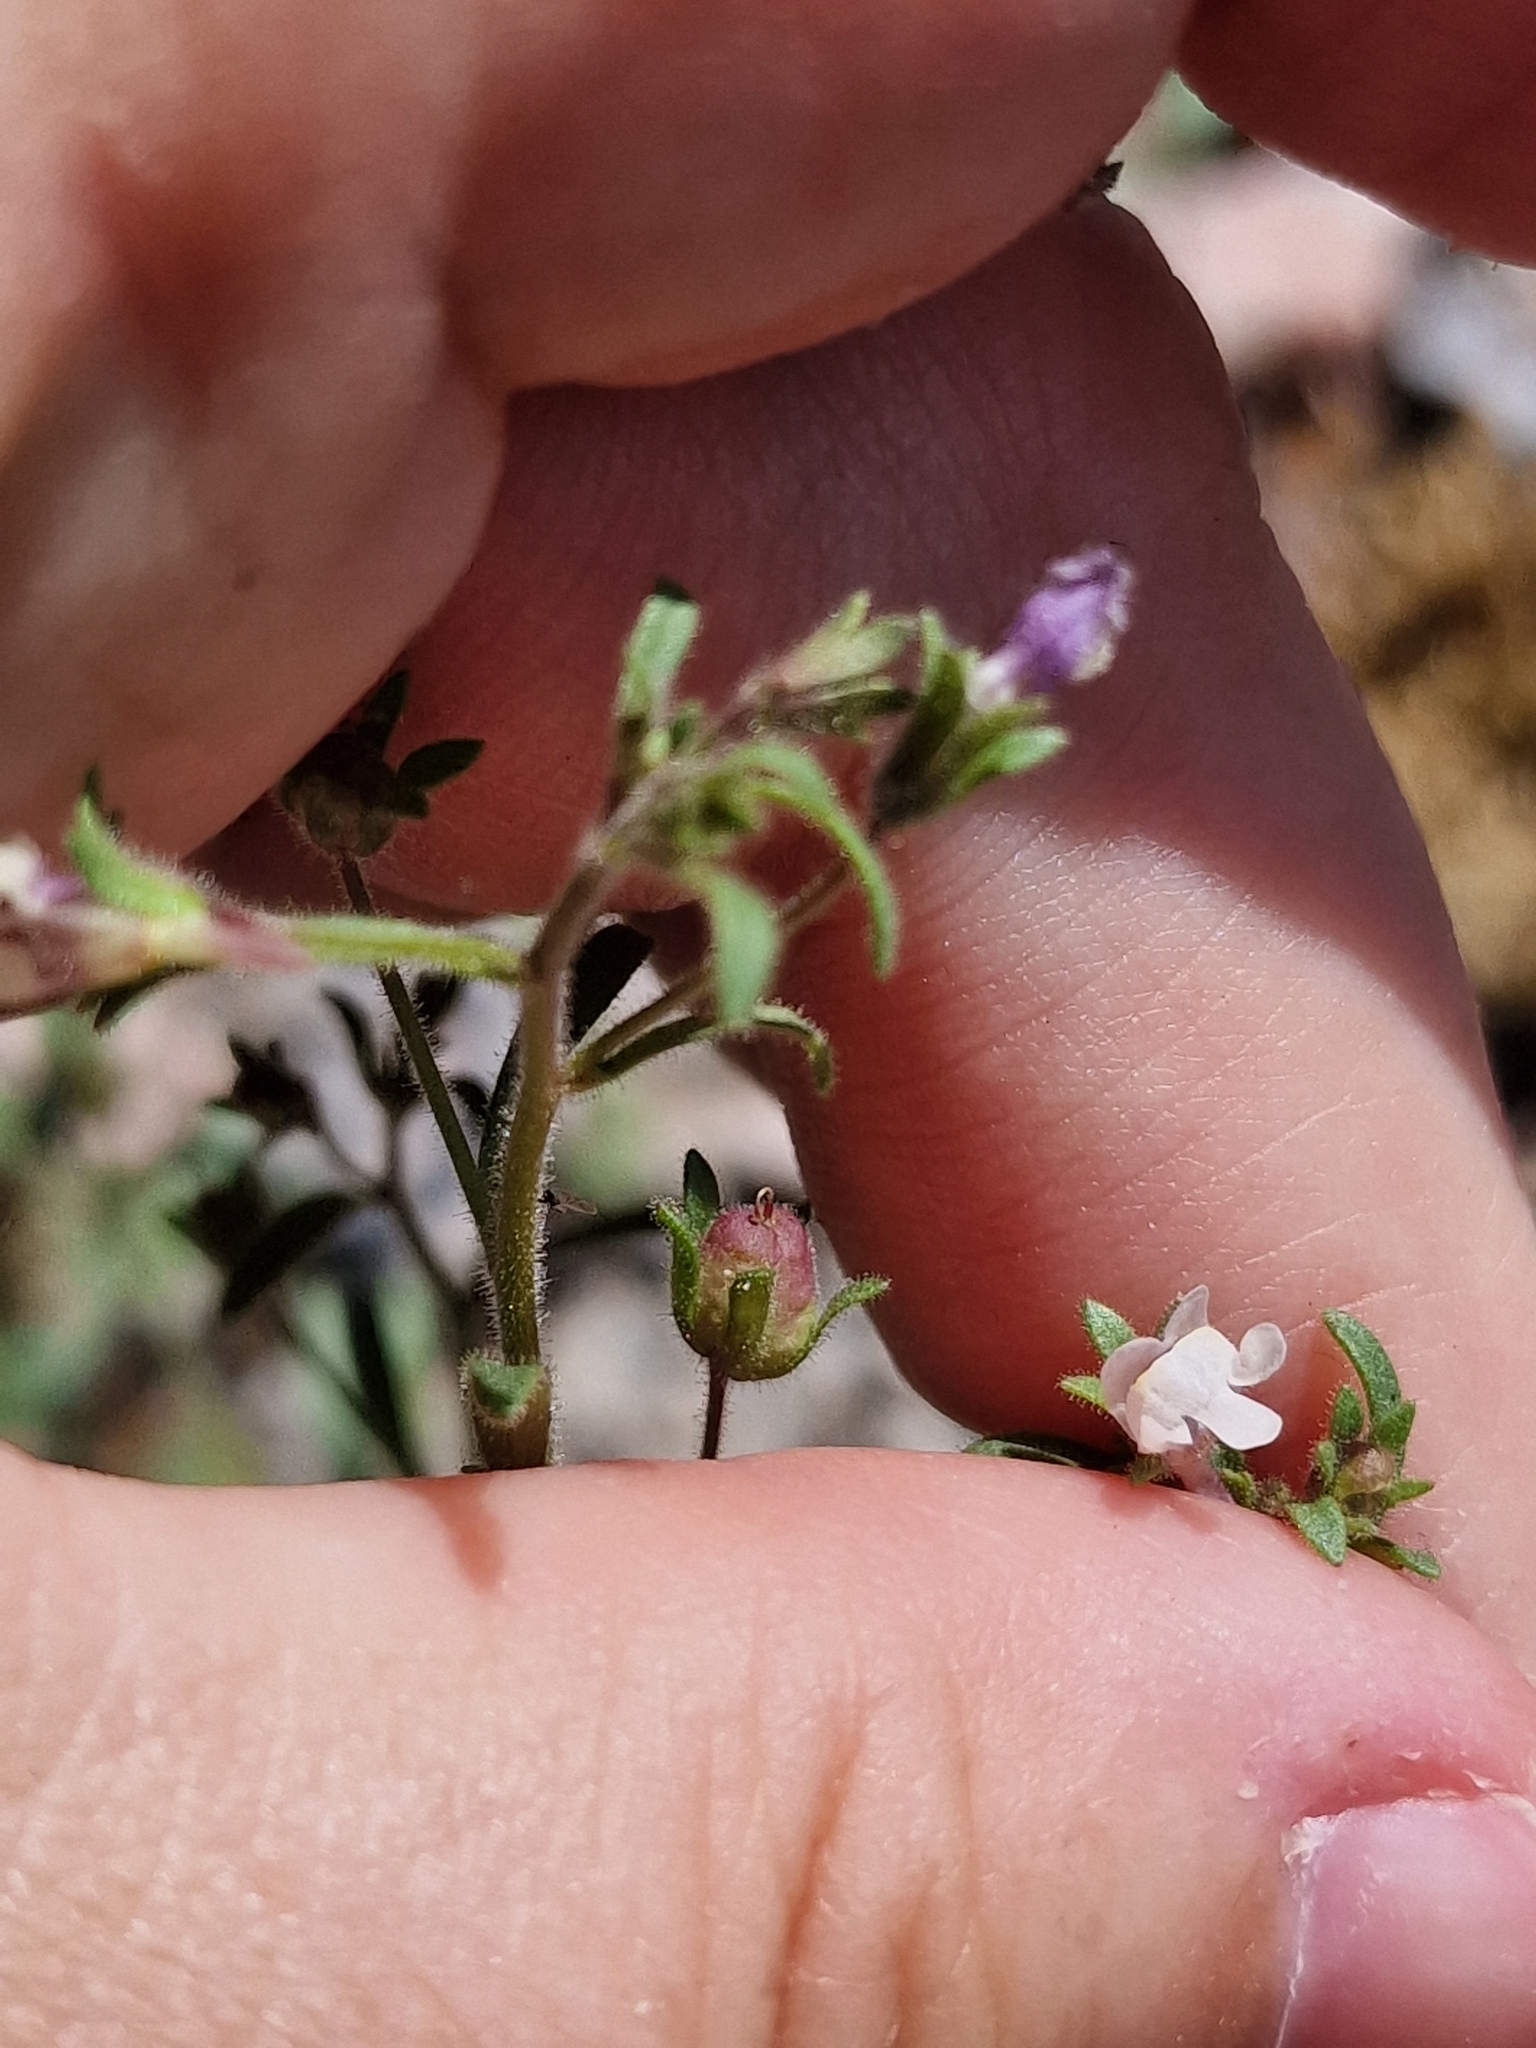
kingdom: Plantae
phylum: Tracheophyta
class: Magnoliopsida
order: Lamiales
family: Plantaginaceae
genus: Chaenorhinum
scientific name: Chaenorhinum minus
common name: Dwarf snapdragon
